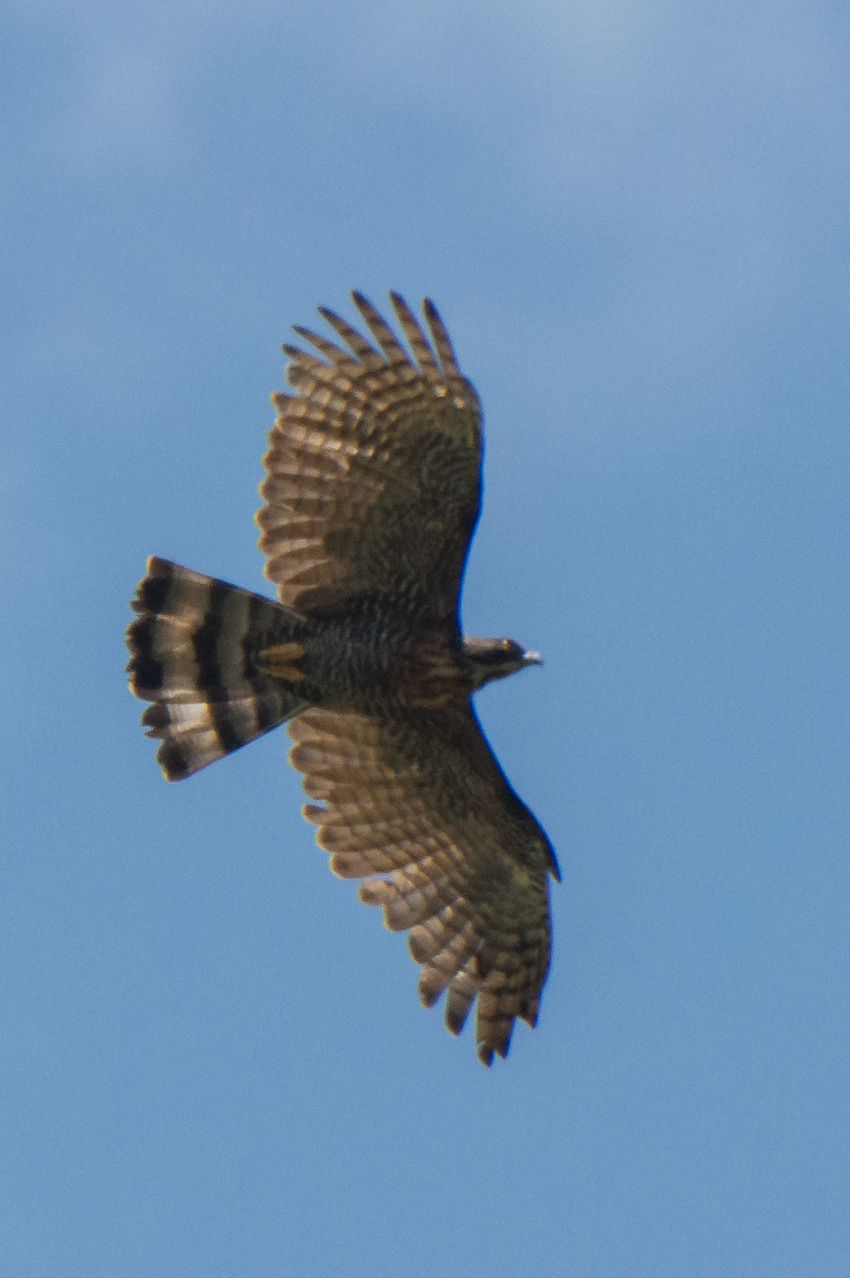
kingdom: Animalia
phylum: Chordata
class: Aves
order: Accipitriformes
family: Accipitridae
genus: Pernis
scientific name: Pernis celebensis
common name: Barred honey buzzard
